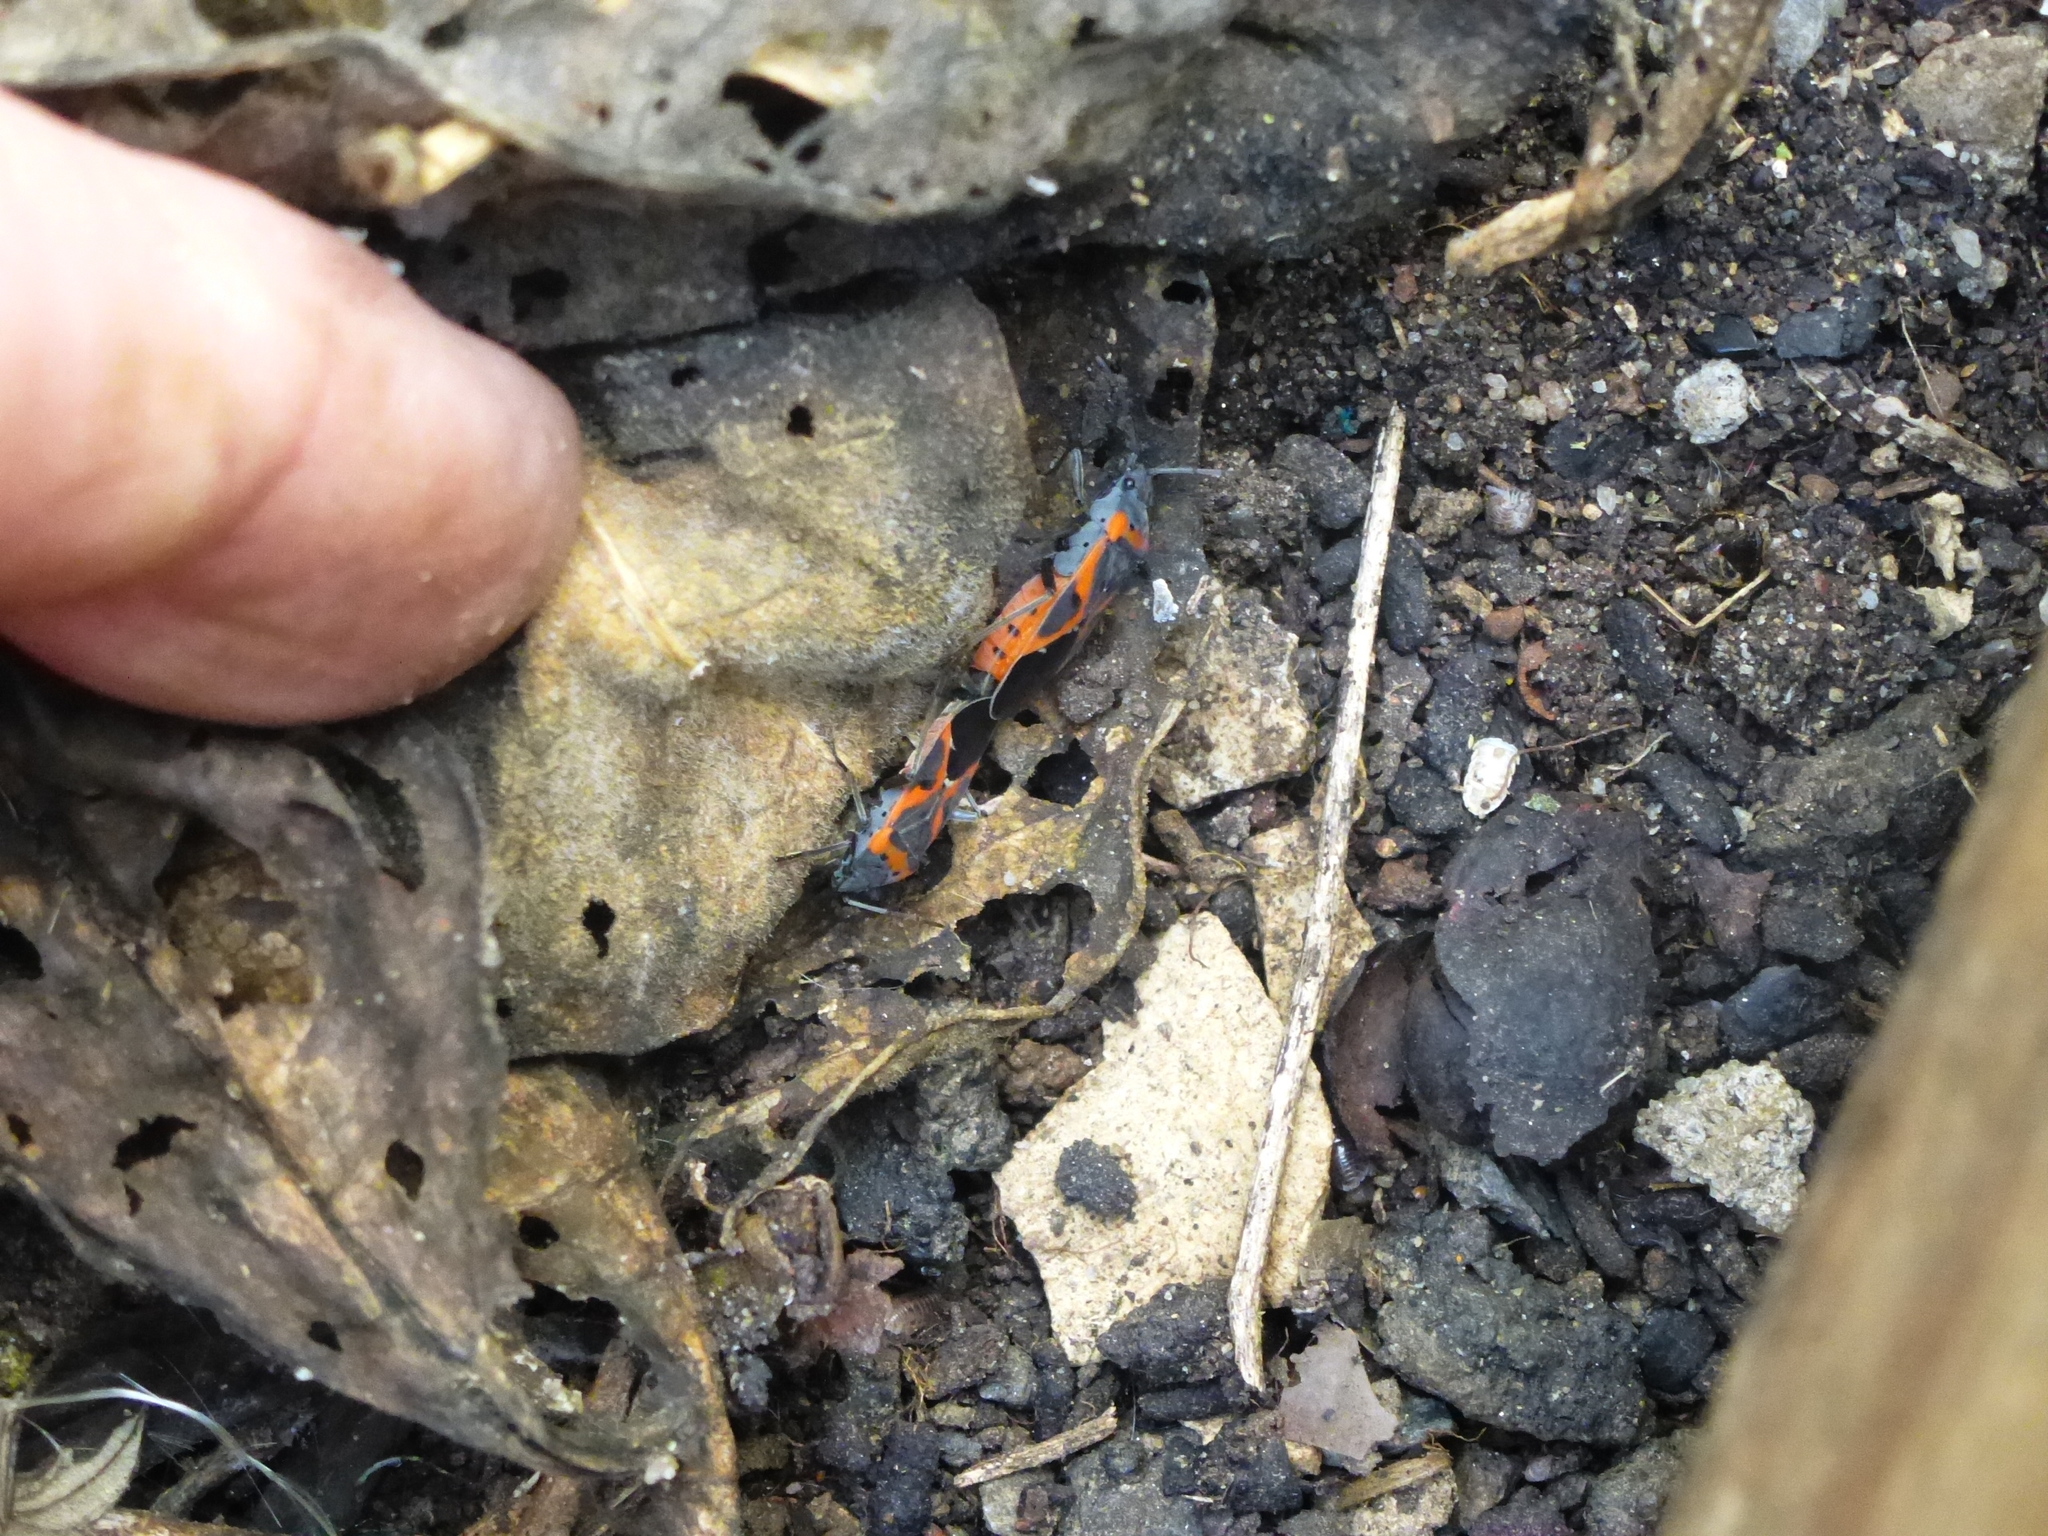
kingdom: Animalia
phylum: Arthropoda
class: Insecta
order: Hemiptera
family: Lygaeidae
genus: Lygaeus
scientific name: Lygaeus kalmii
